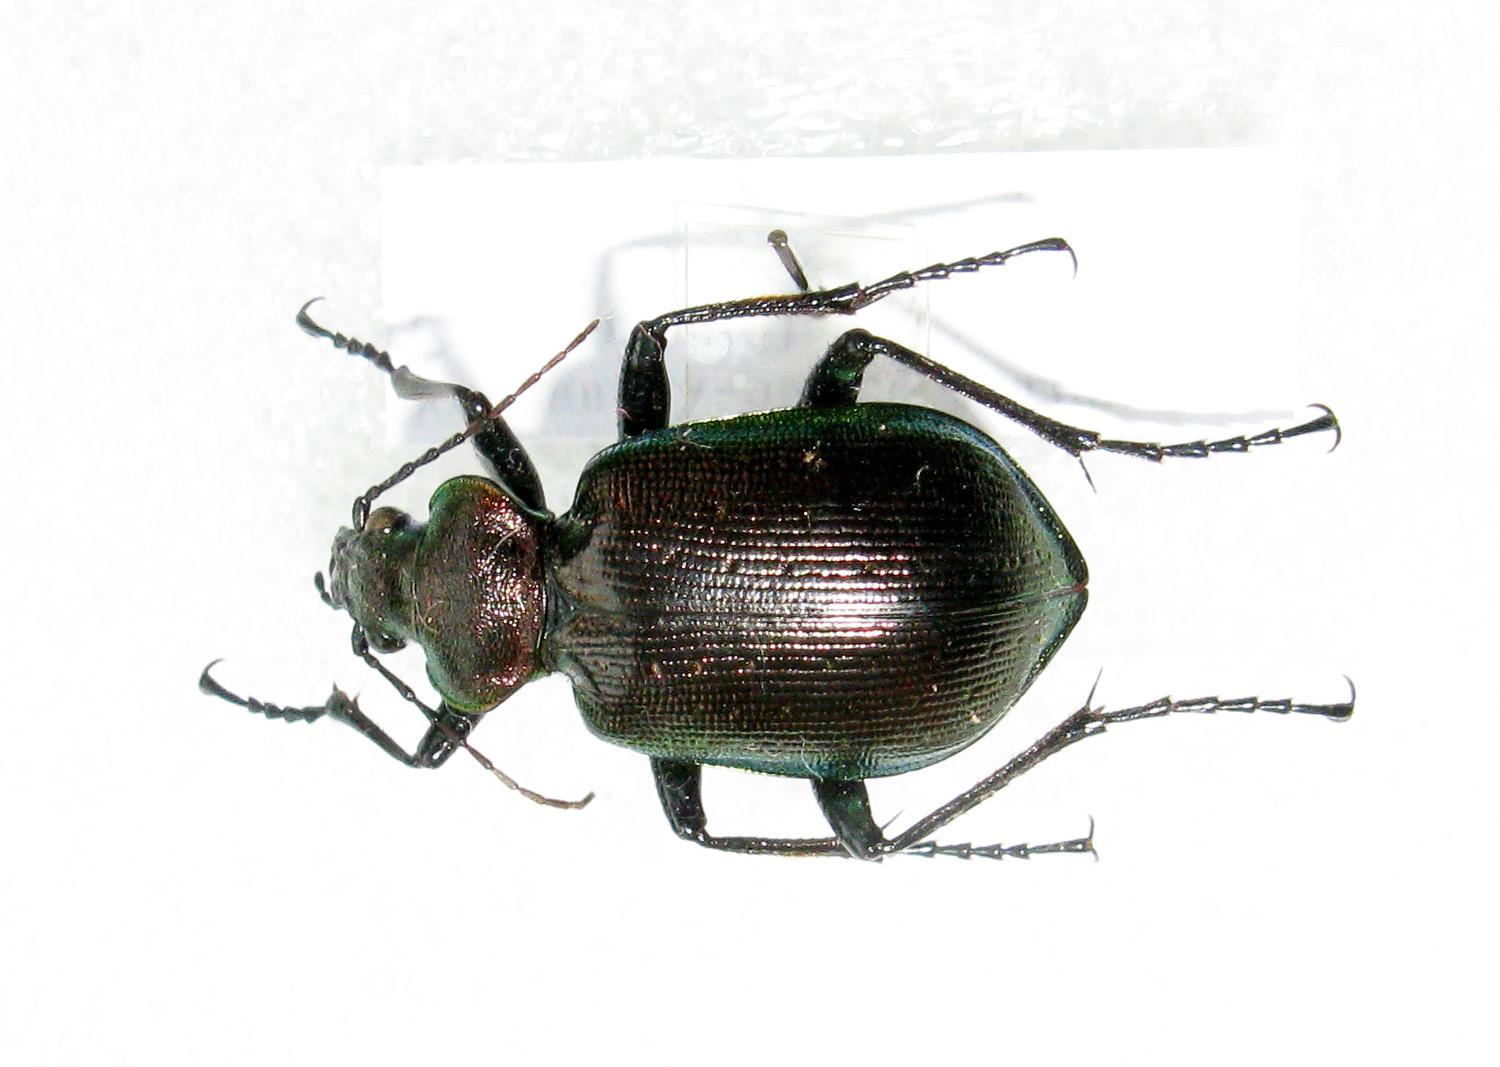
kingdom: Animalia
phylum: Arthropoda
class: Insecta
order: Coleoptera
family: Carabidae
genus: Calosoma
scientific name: Calosoma inquisitor
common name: Caterpillar-hunter
